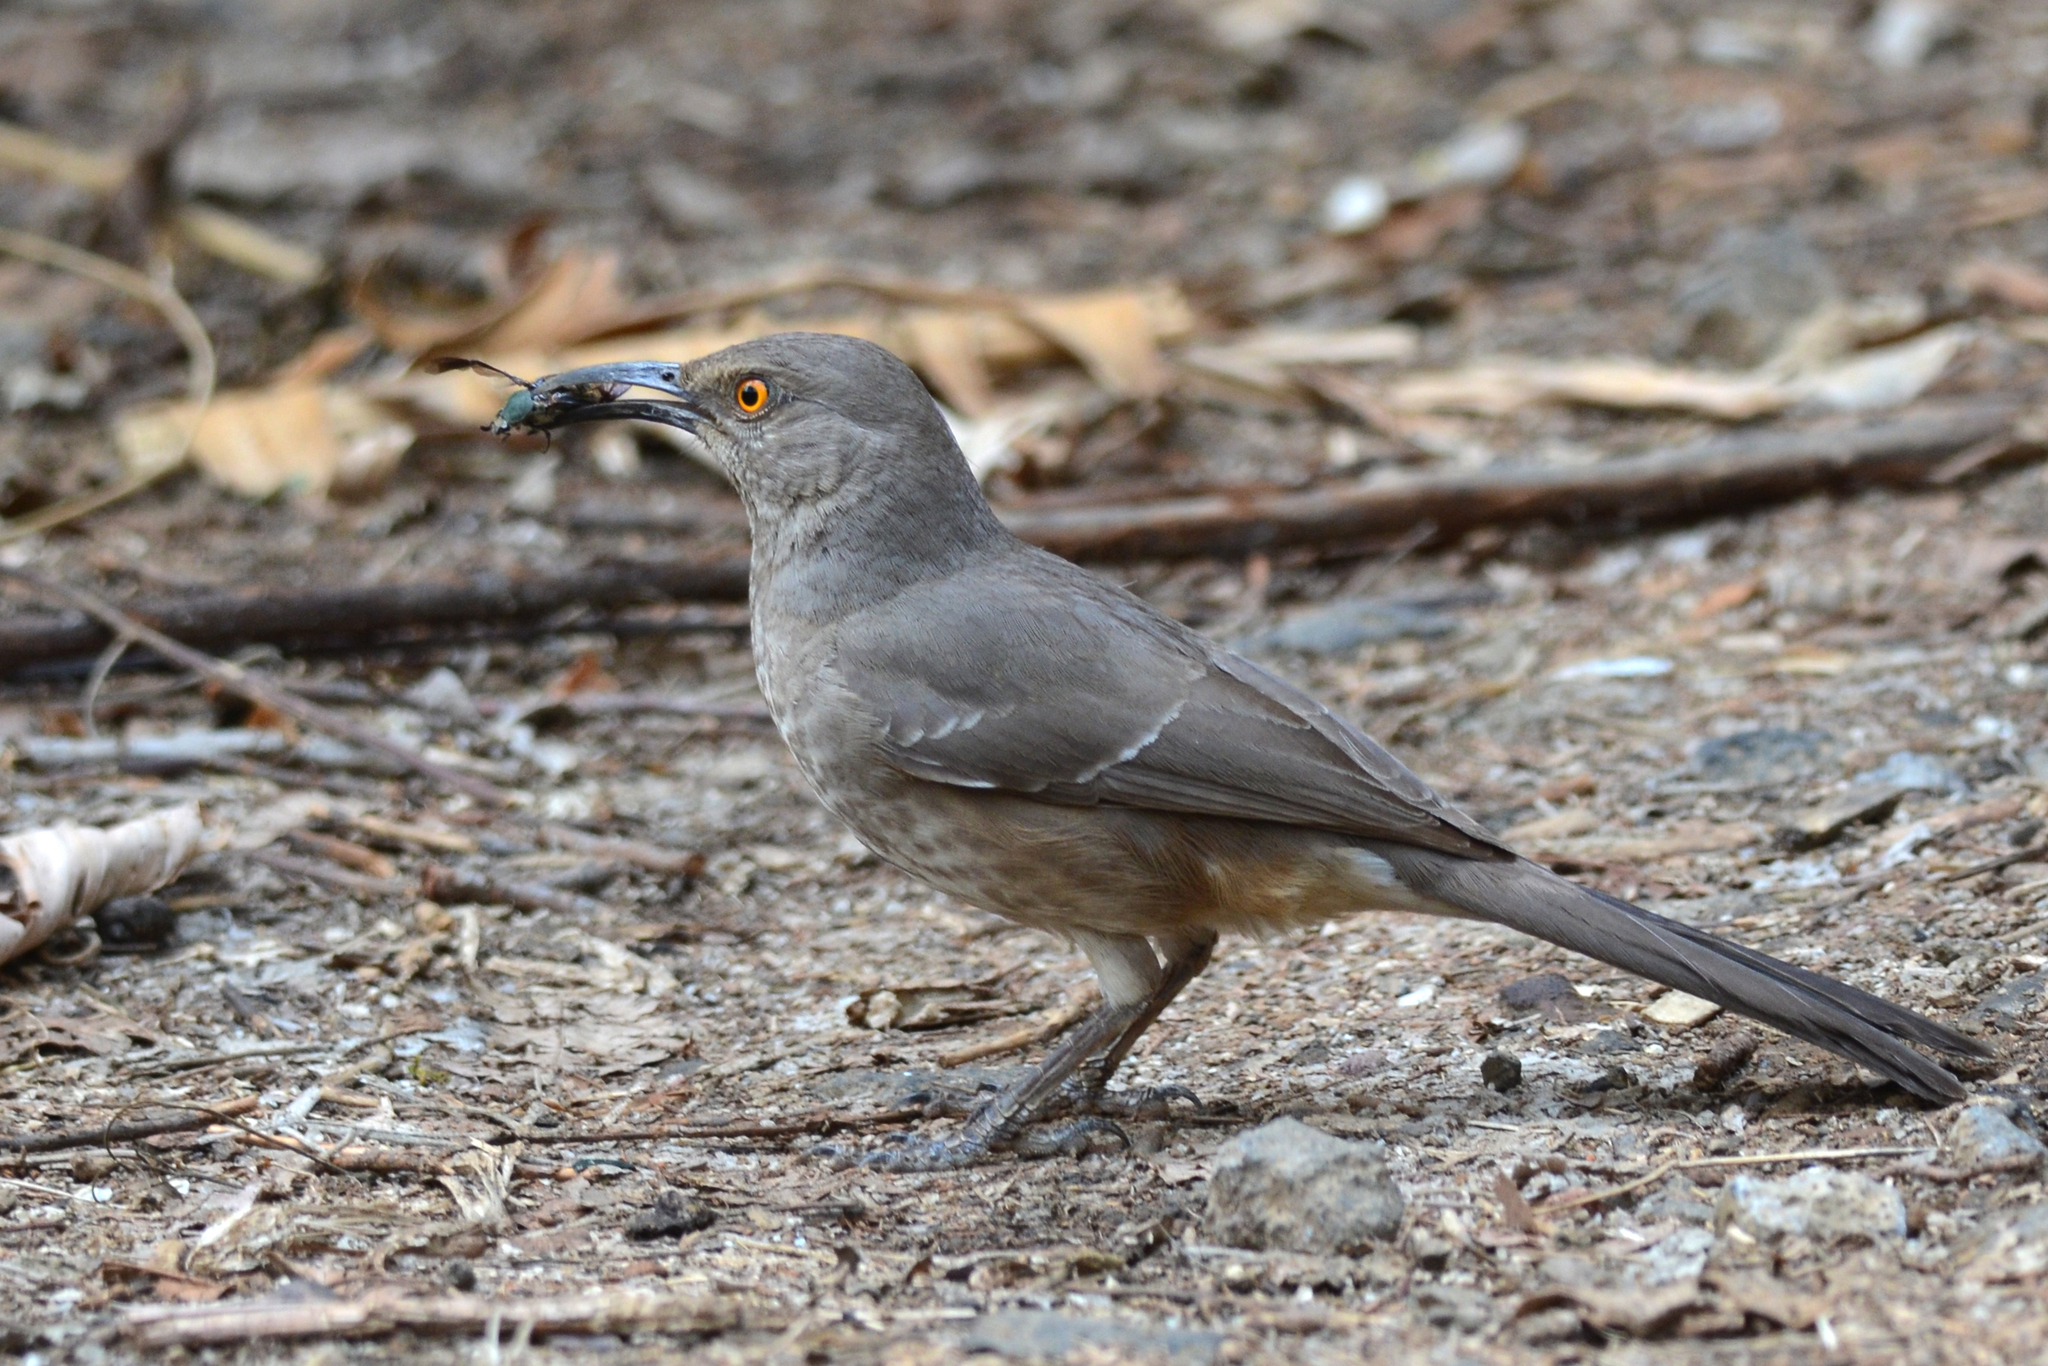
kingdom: Animalia
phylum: Chordata
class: Aves
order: Passeriformes
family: Mimidae
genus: Toxostoma
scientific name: Toxostoma curvirostre
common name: Curve-billed thrasher
